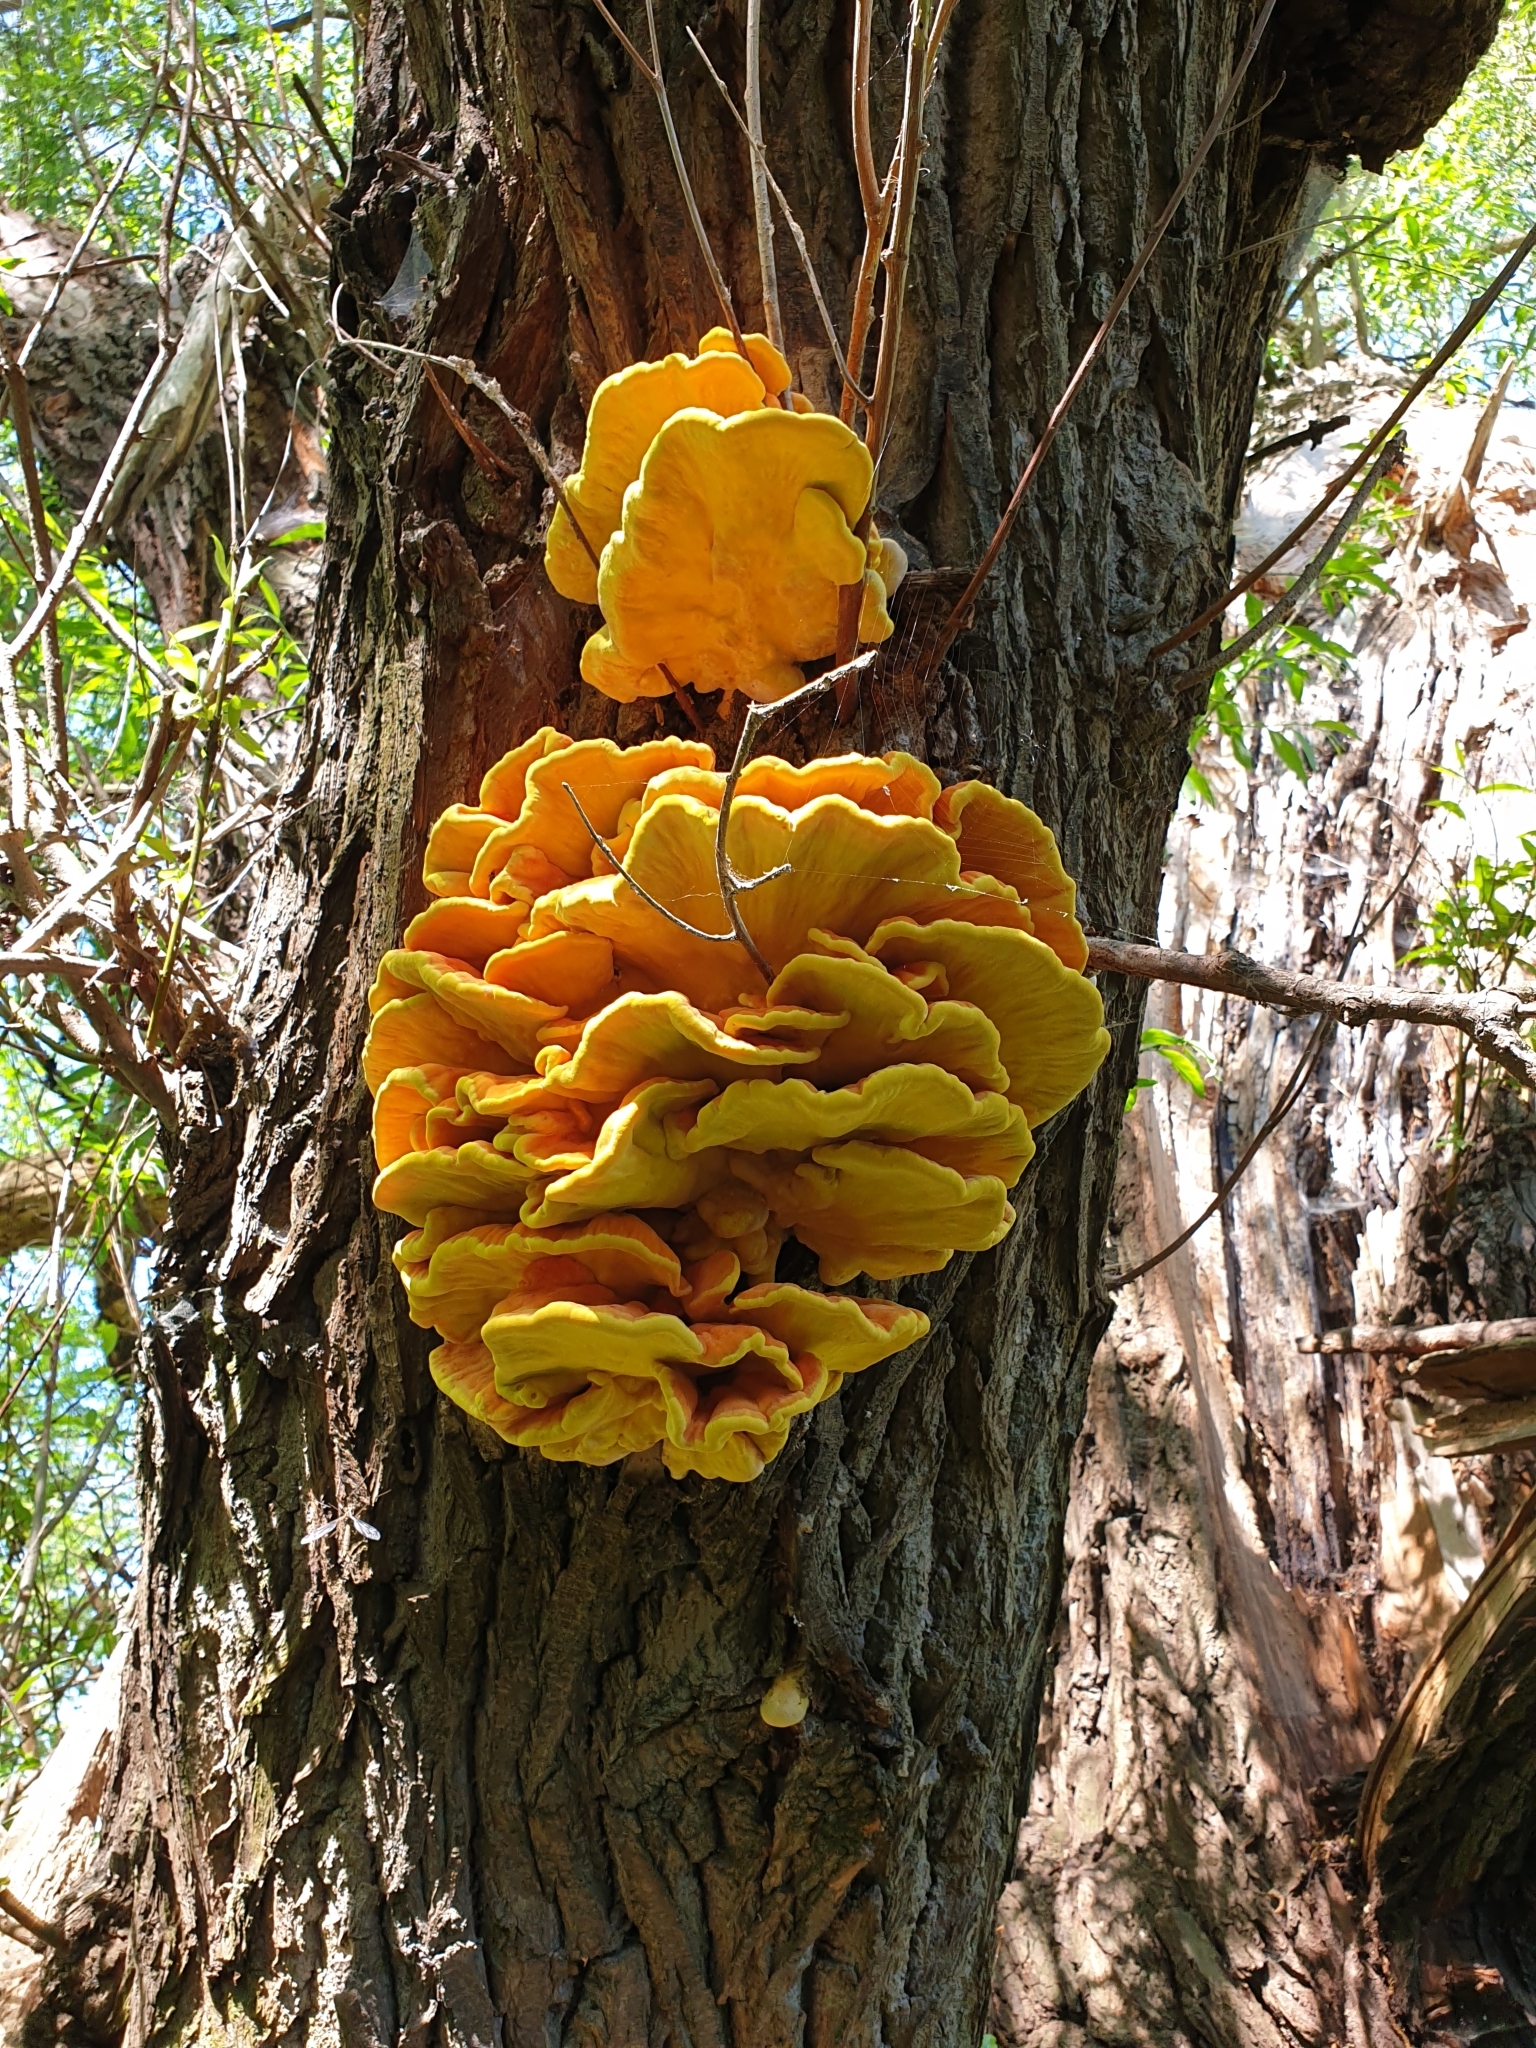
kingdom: Fungi
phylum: Basidiomycota
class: Agaricomycetes
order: Polyporales
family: Laetiporaceae
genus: Laetiporus
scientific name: Laetiporus sulphureus
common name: Chicken of the woods
